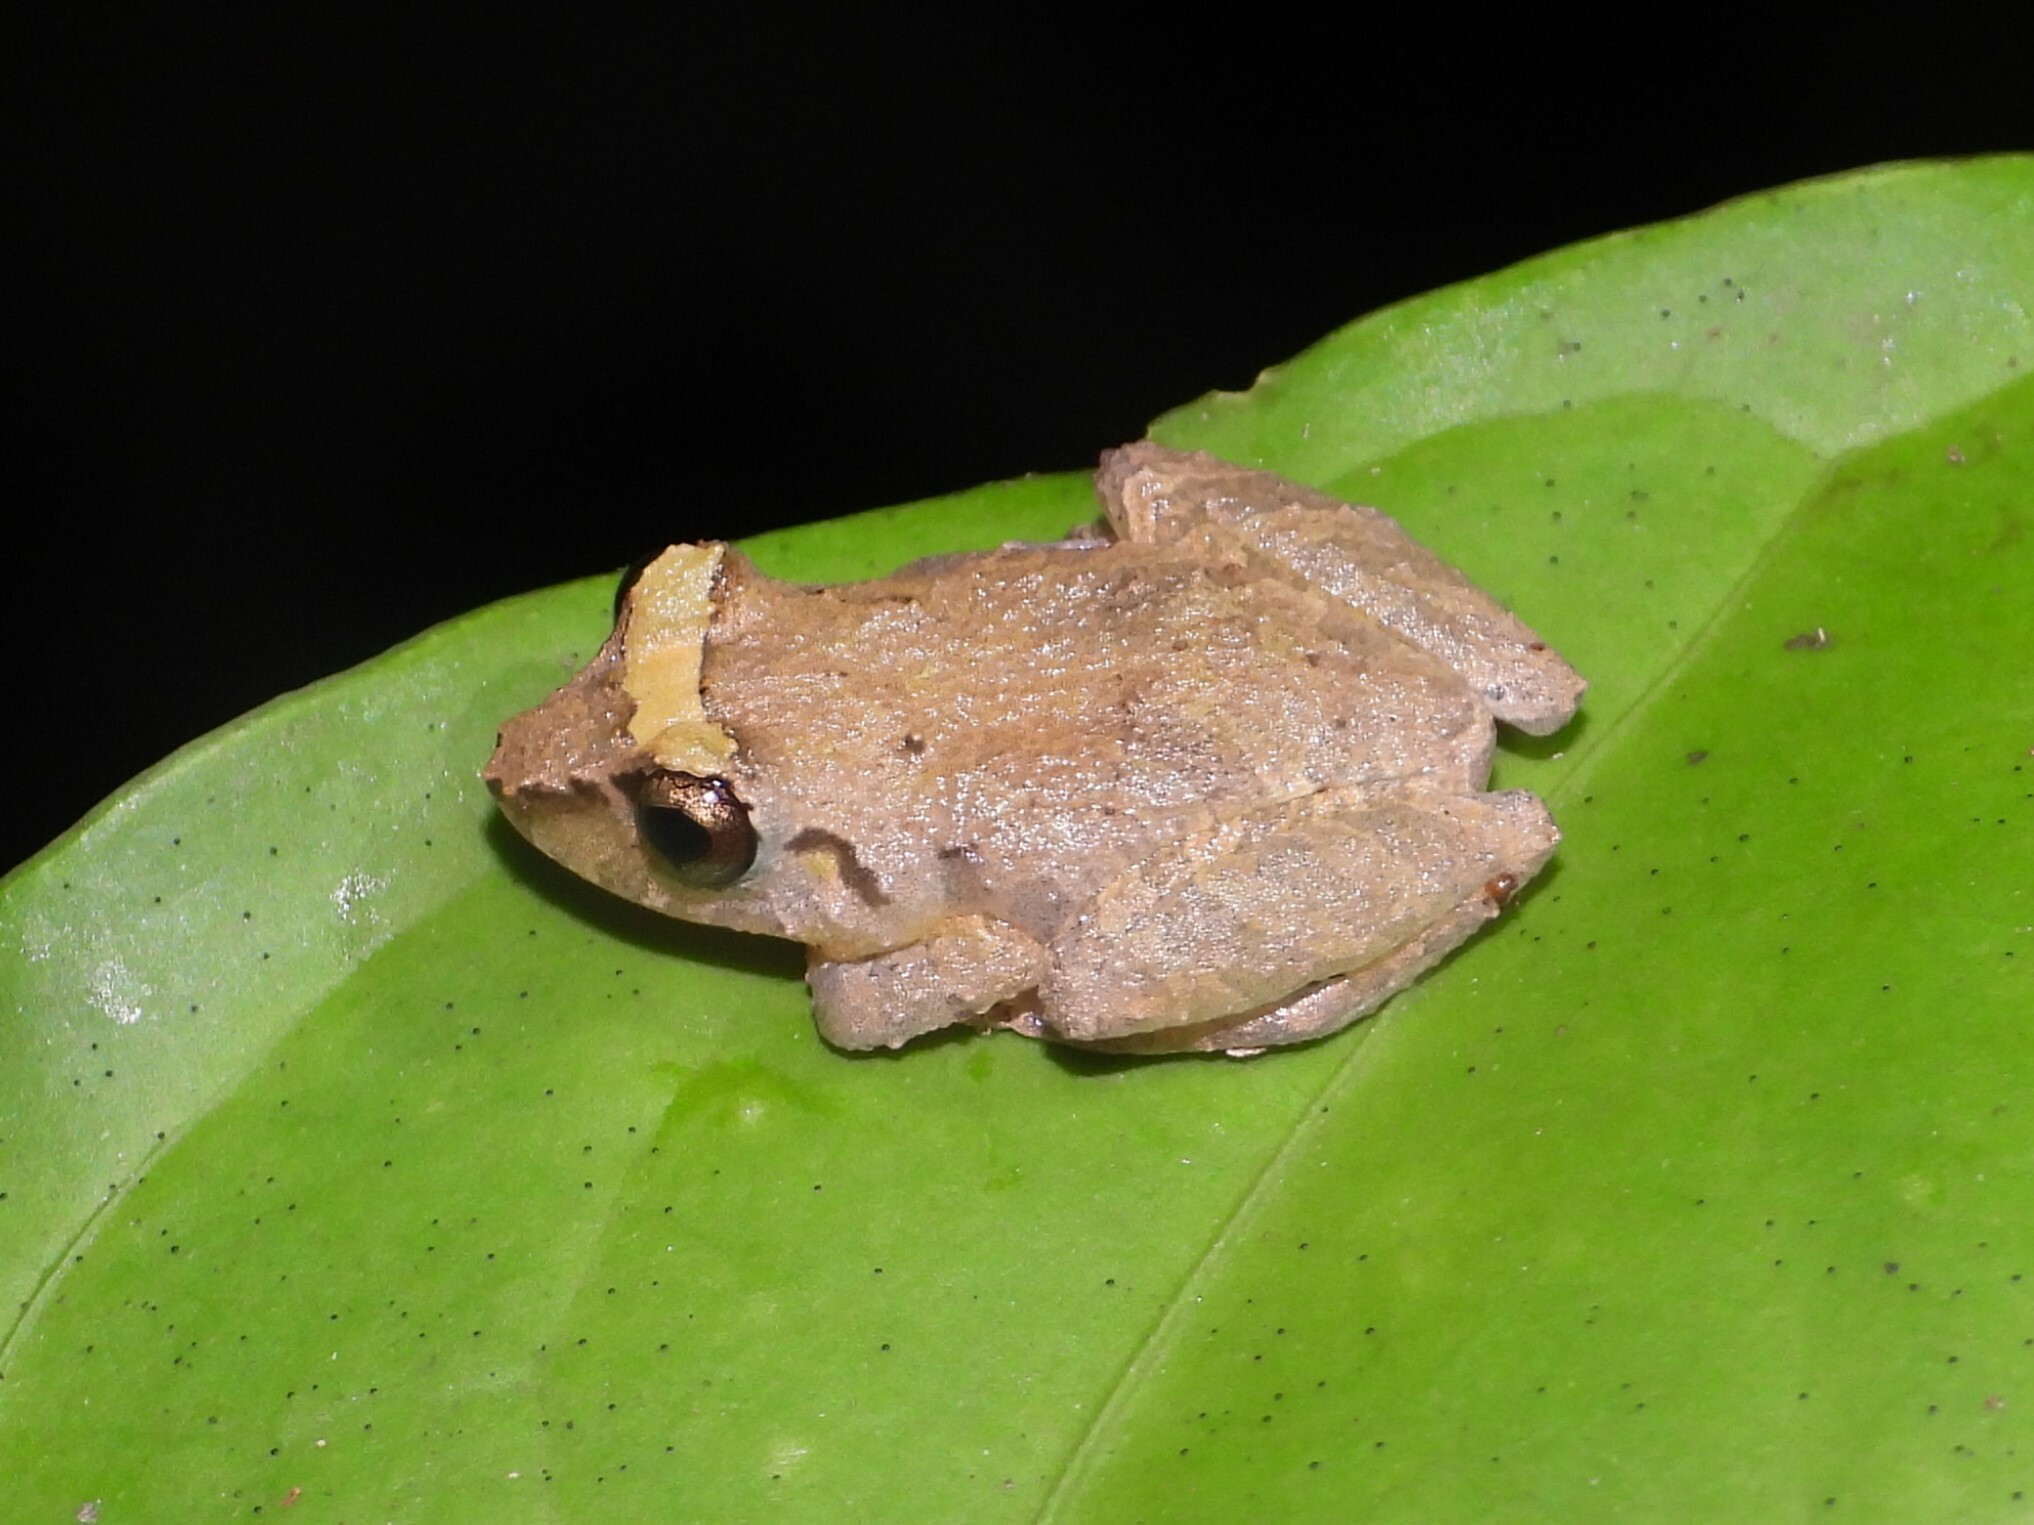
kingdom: Animalia
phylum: Chordata
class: Amphibia
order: Anura
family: Craugastoridae
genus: Pristimantis
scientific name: Pristimantis ridens
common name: Rio san juan robber frog
